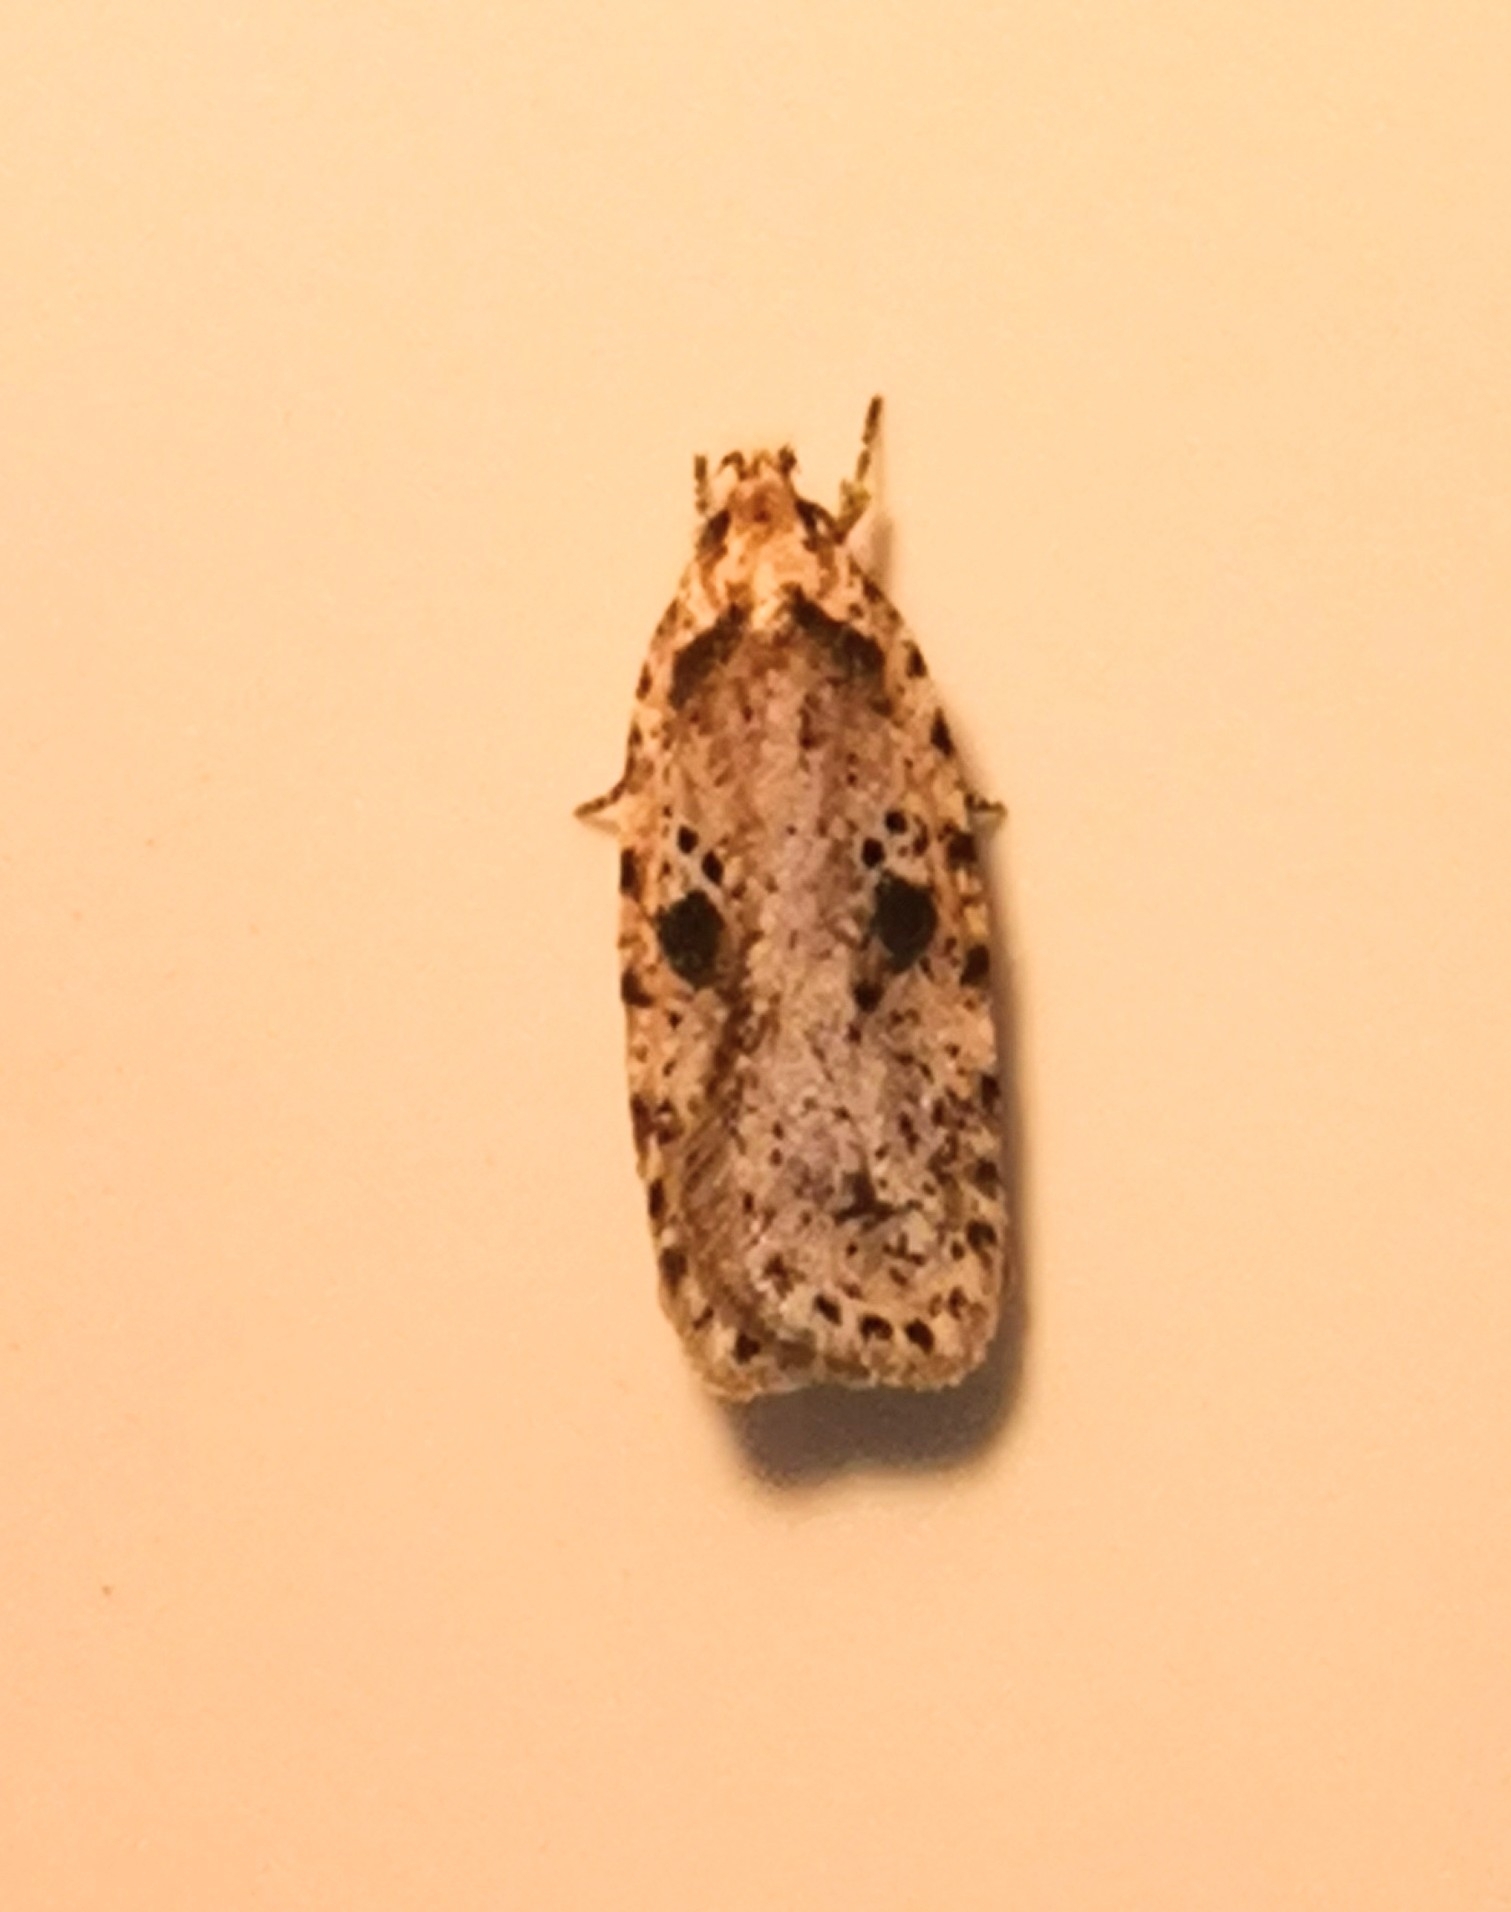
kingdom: Animalia
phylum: Arthropoda
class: Insecta
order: Lepidoptera
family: Depressariidae
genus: Agonopterix
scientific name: Agonopterix arenella
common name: Brindled flat-body
